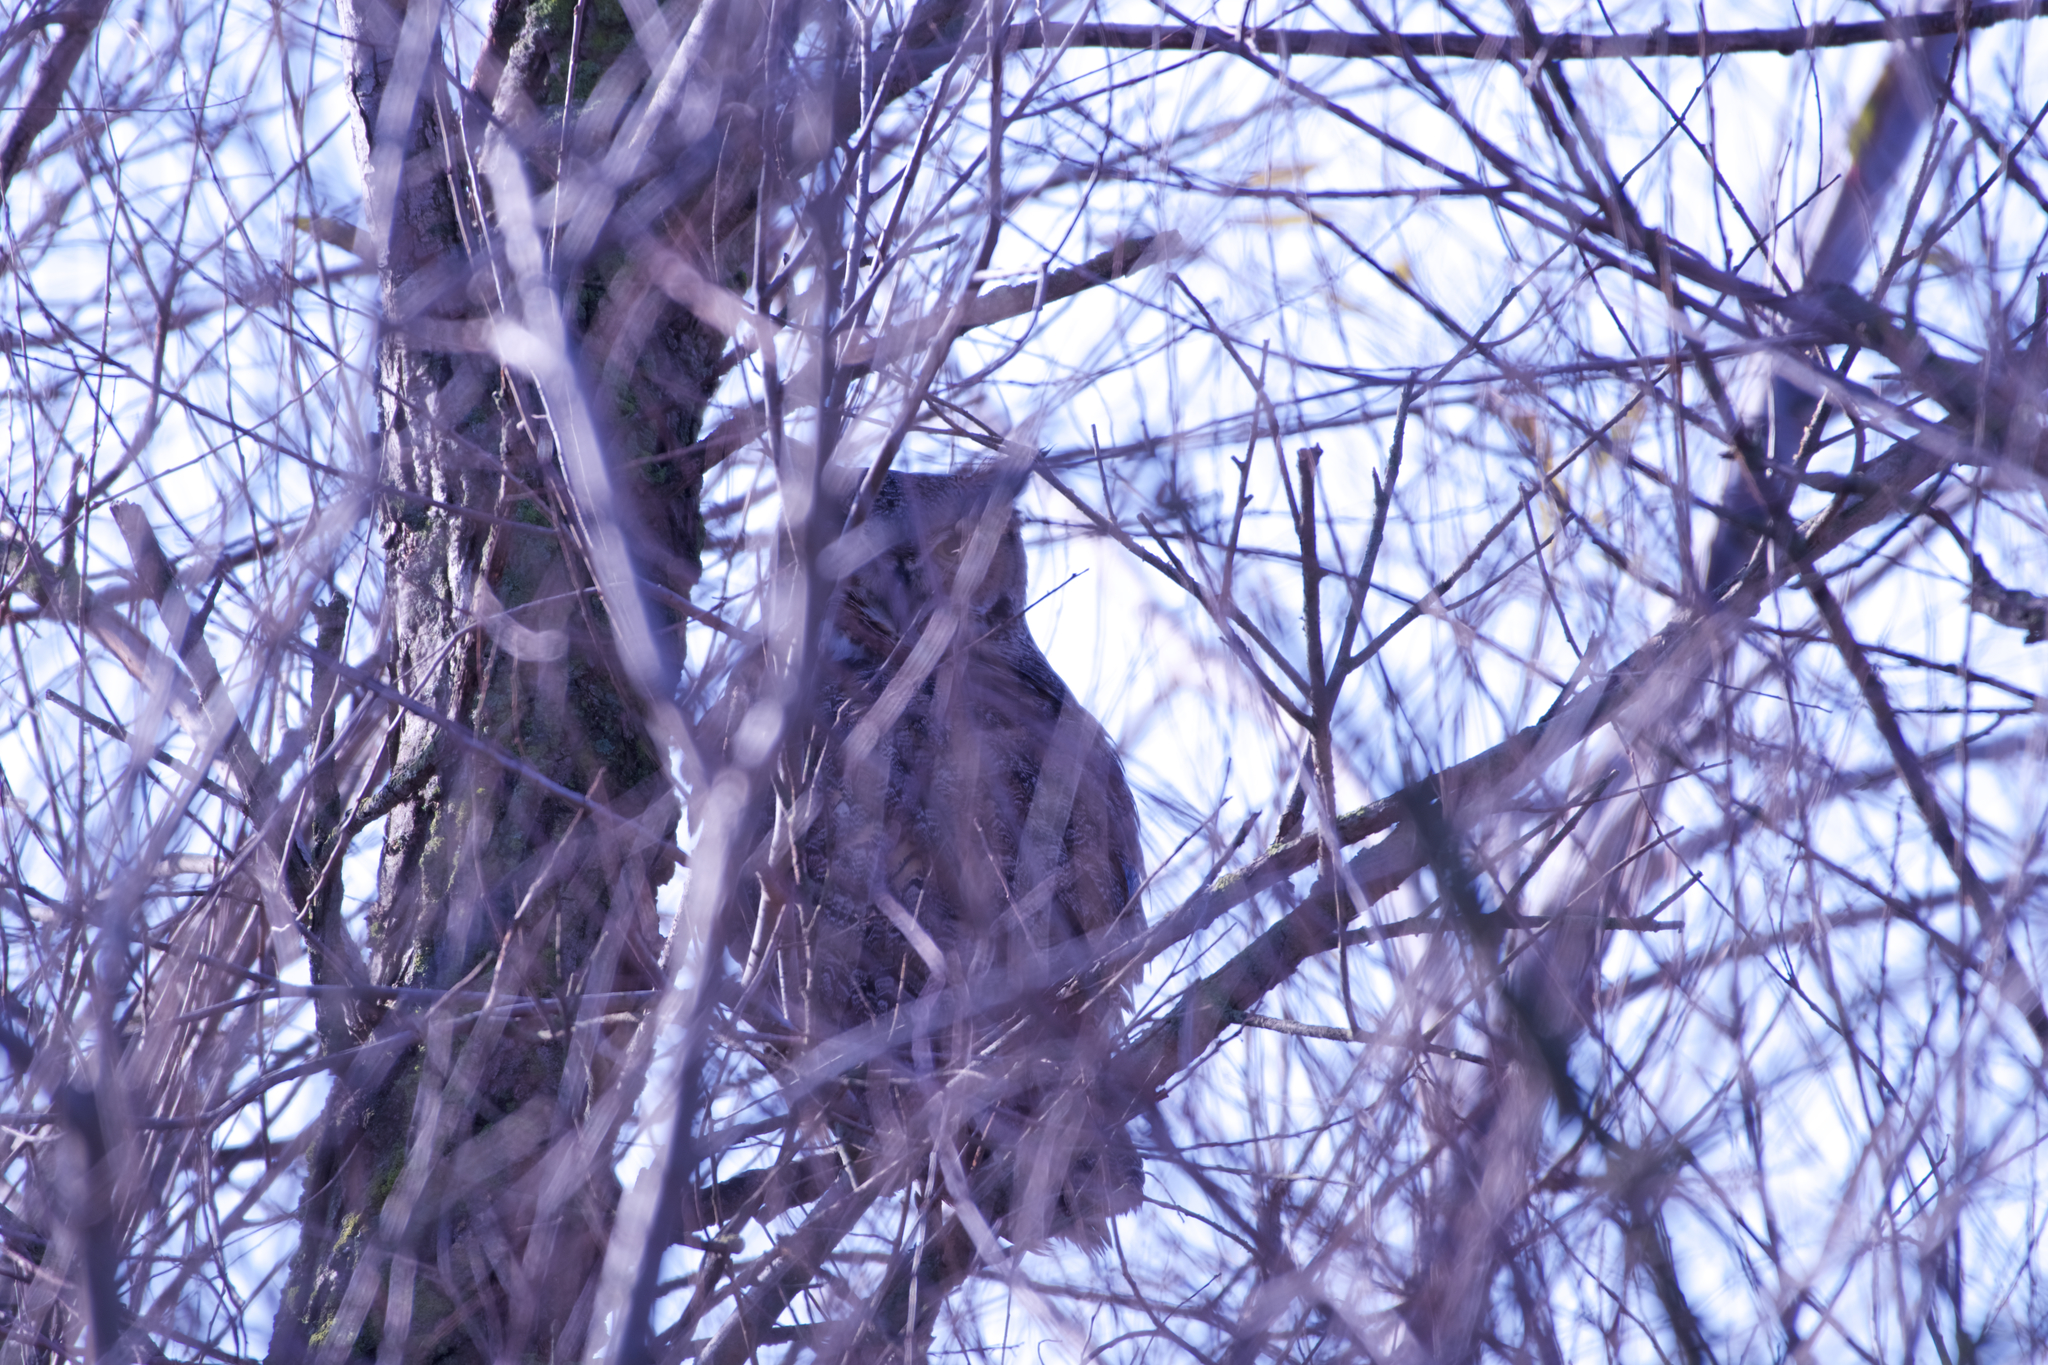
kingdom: Animalia
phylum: Chordata
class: Aves
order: Strigiformes
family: Strigidae
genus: Bubo
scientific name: Bubo virginianus
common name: Great horned owl
